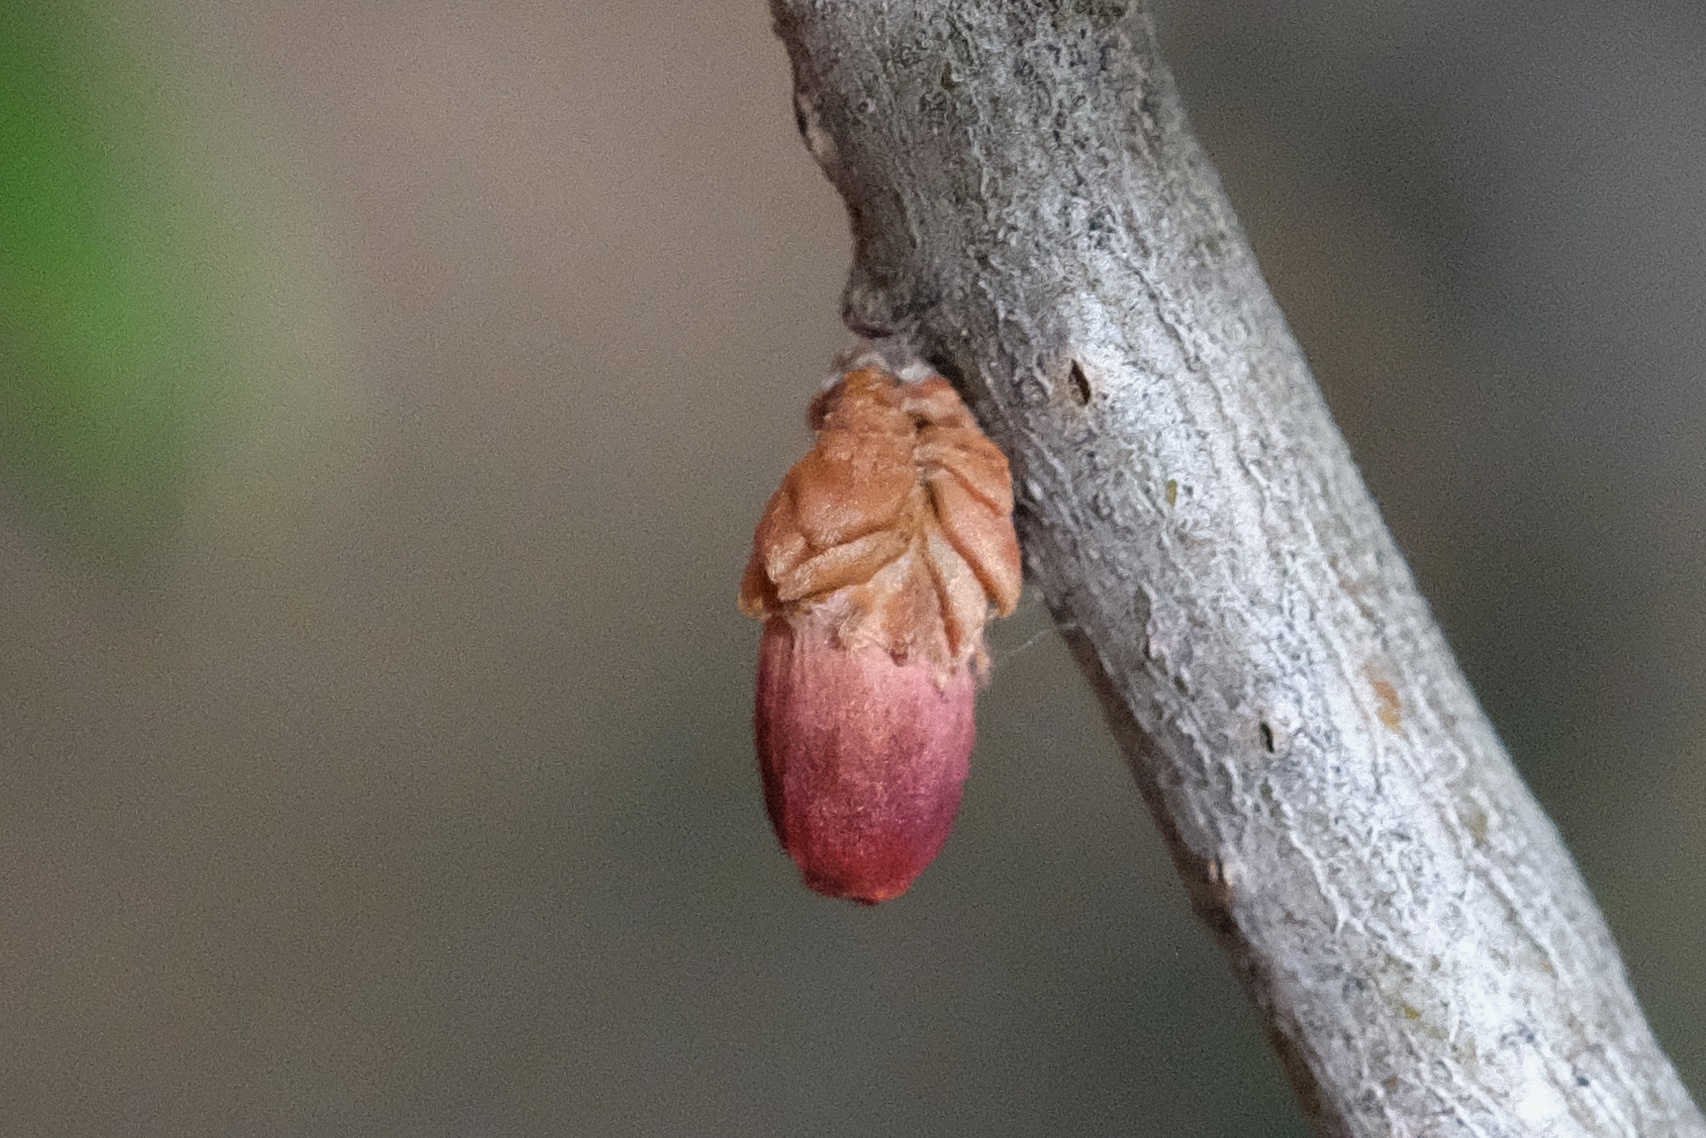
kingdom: Animalia
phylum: Arthropoda
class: Insecta
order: Hymenoptera
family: Cynipidae
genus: Andricus
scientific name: Andricus
